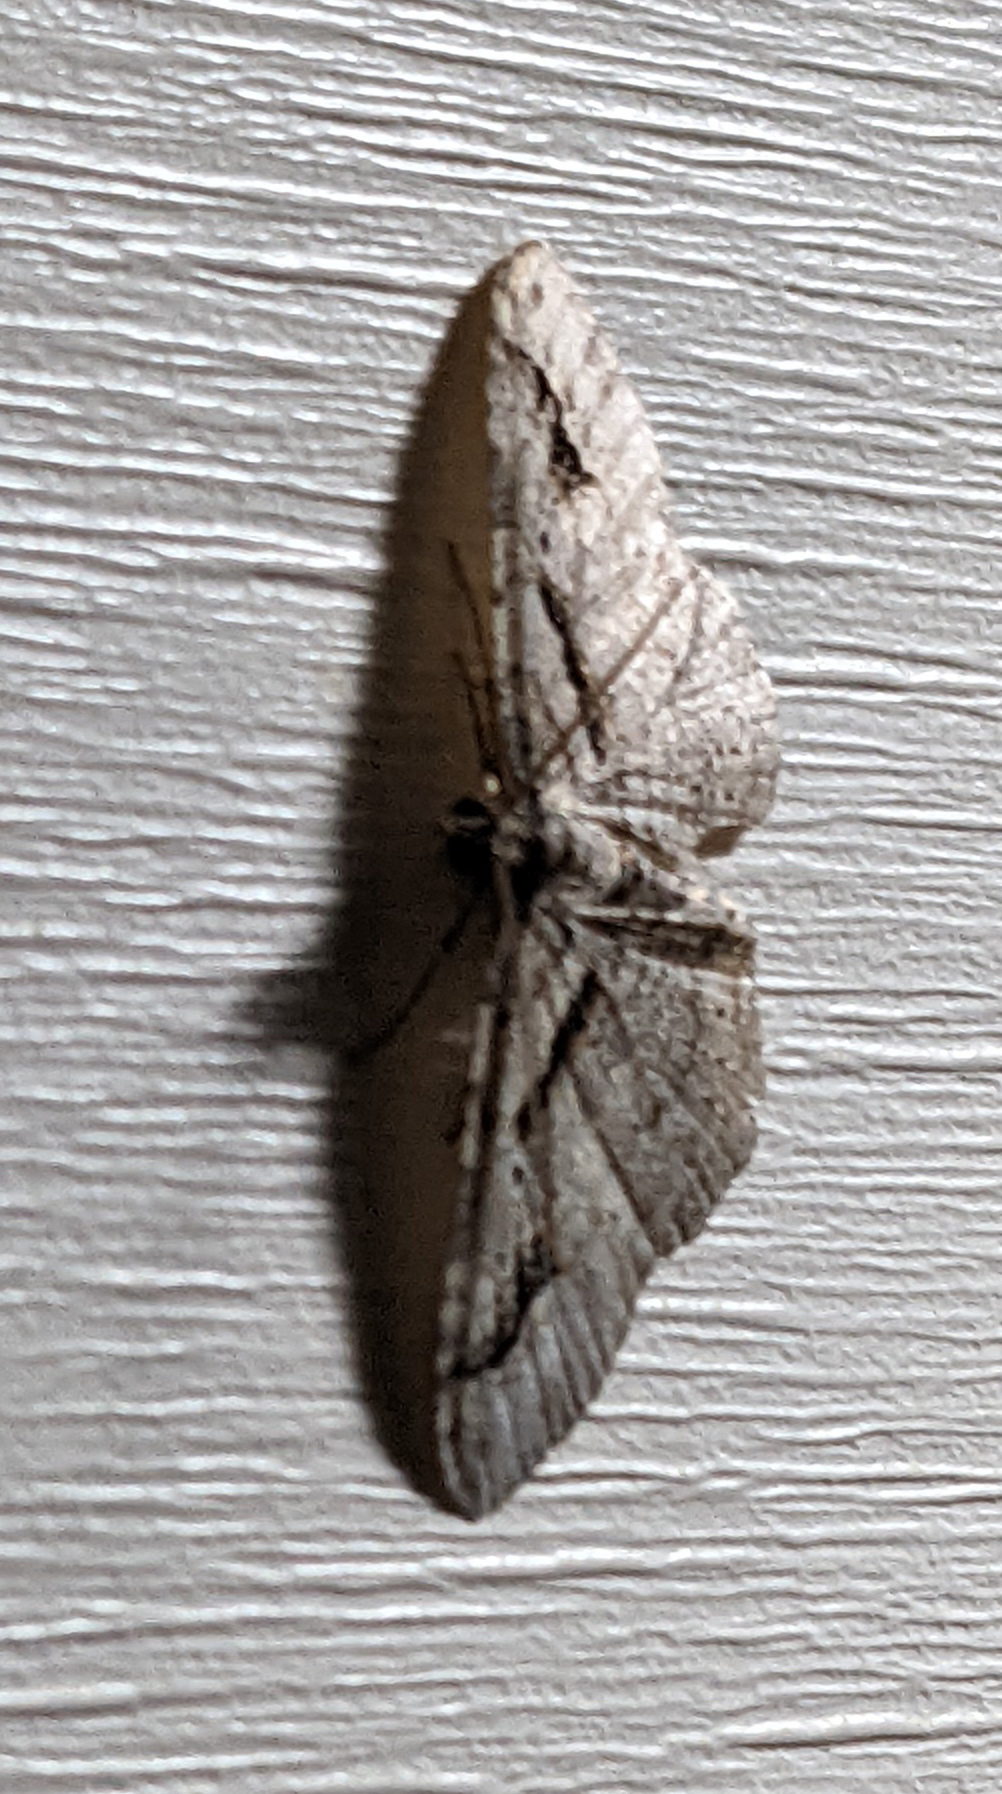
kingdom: Animalia
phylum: Arthropoda
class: Insecta
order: Lepidoptera
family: Geometridae
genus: Costaconvexa
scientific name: Costaconvexa centrostrigaria
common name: Bent-line carpet
